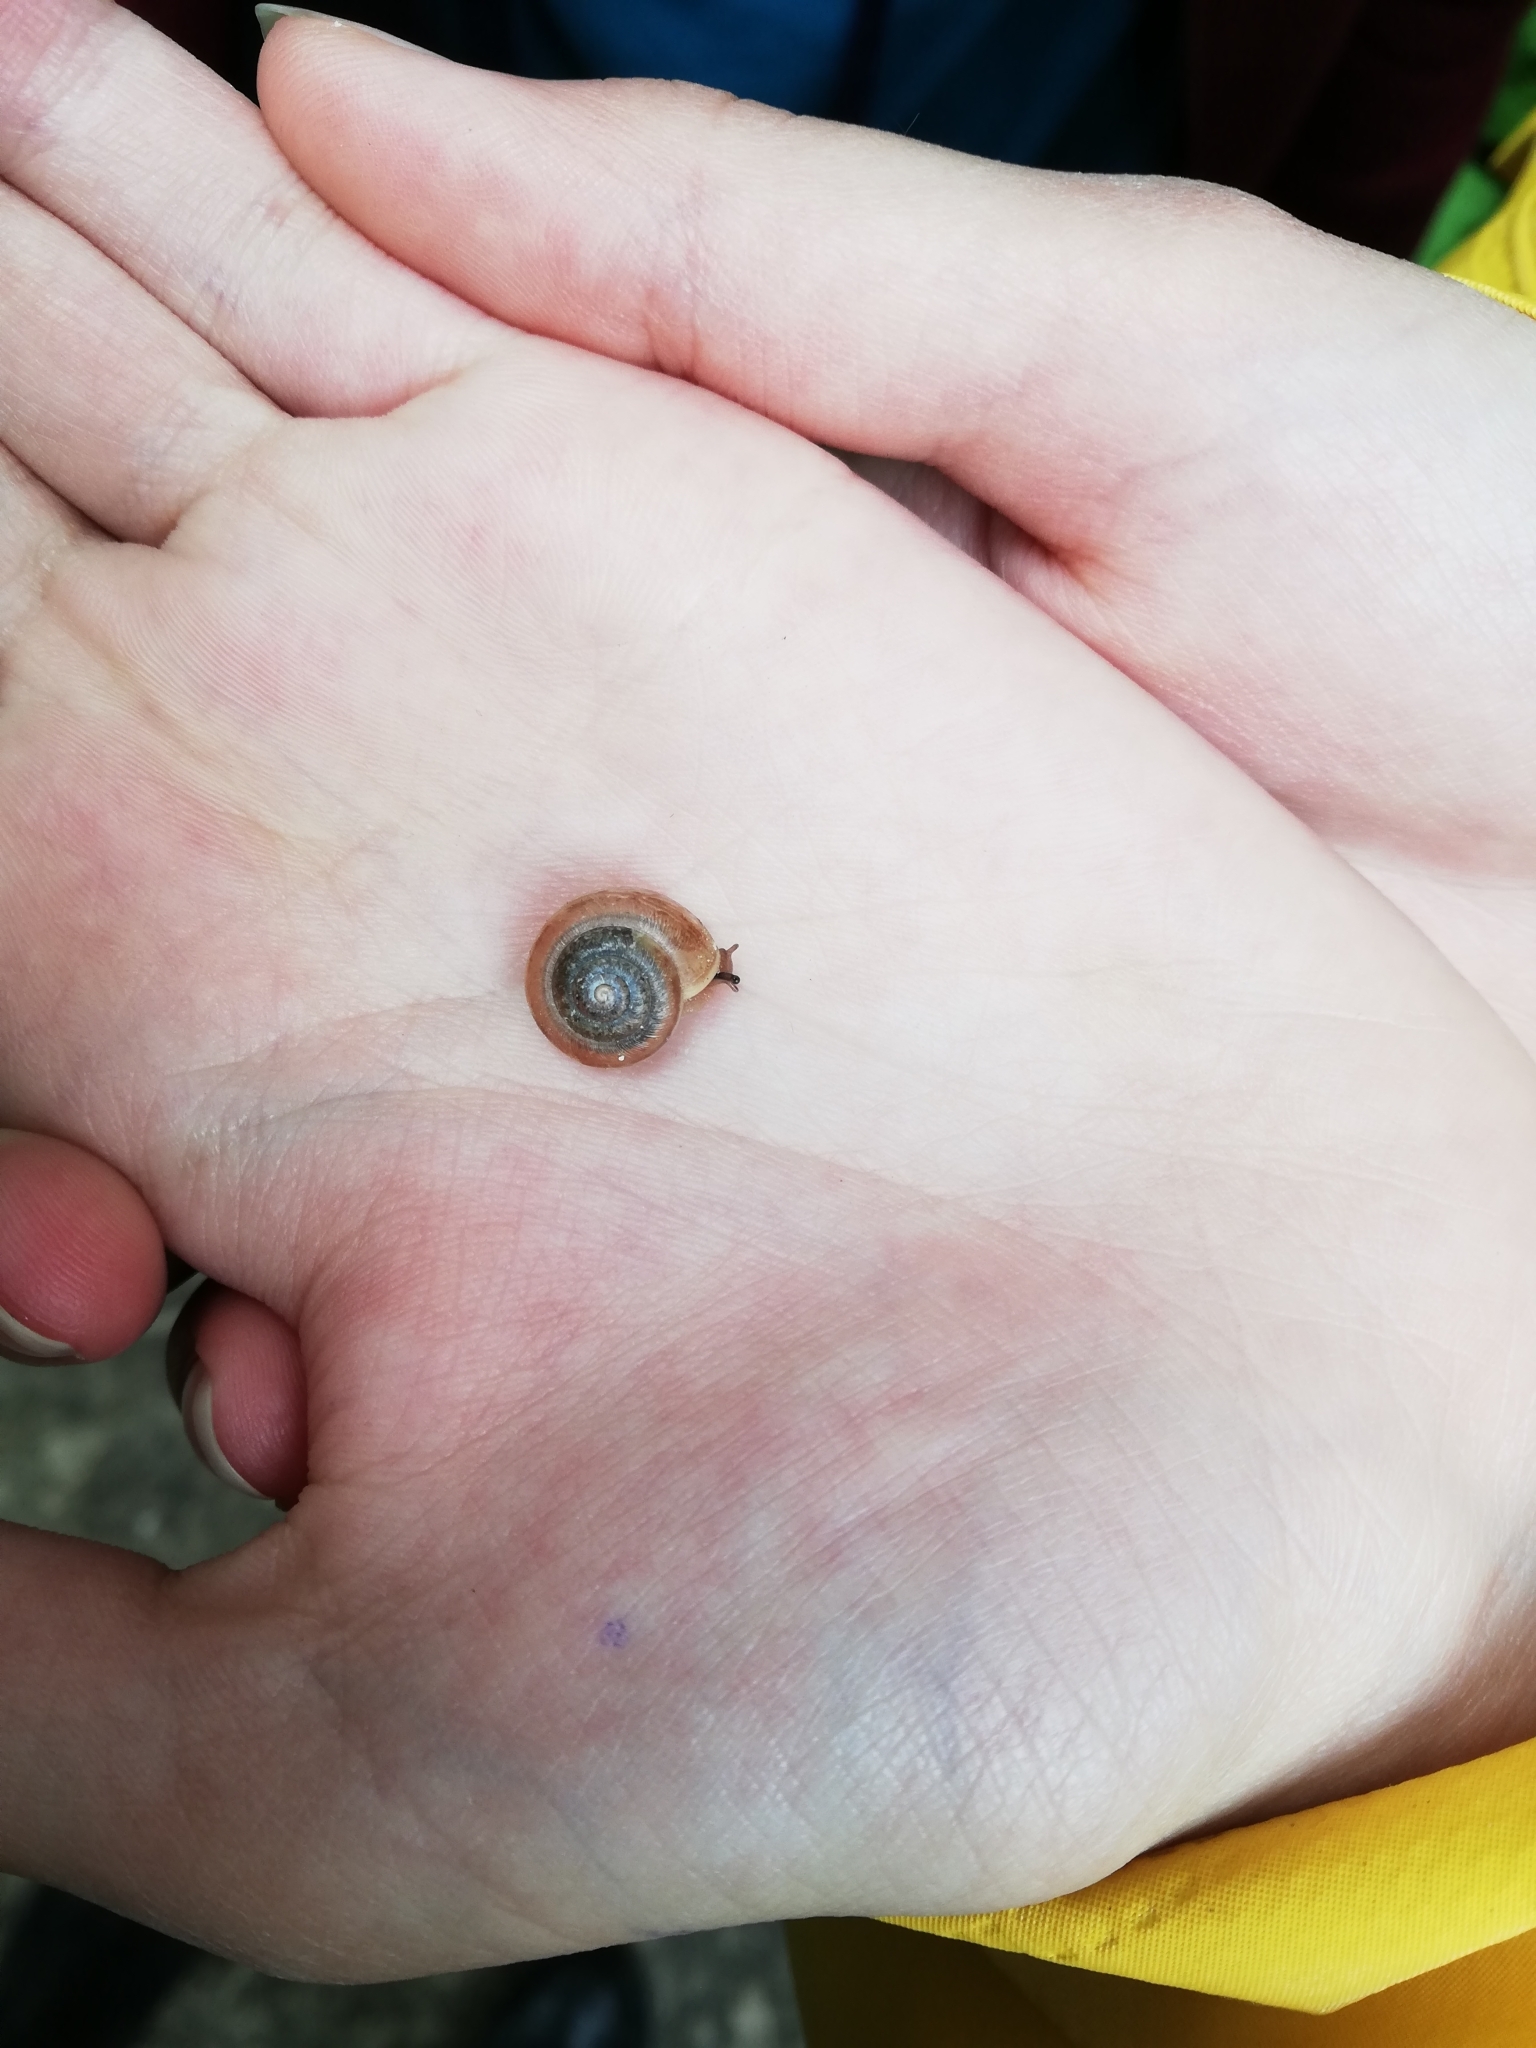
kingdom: Animalia
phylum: Mollusca
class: Gastropoda
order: Stylommatophora
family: Camaenidae
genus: Fruticicola
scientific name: Fruticicola fruticum
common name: Bush snail
